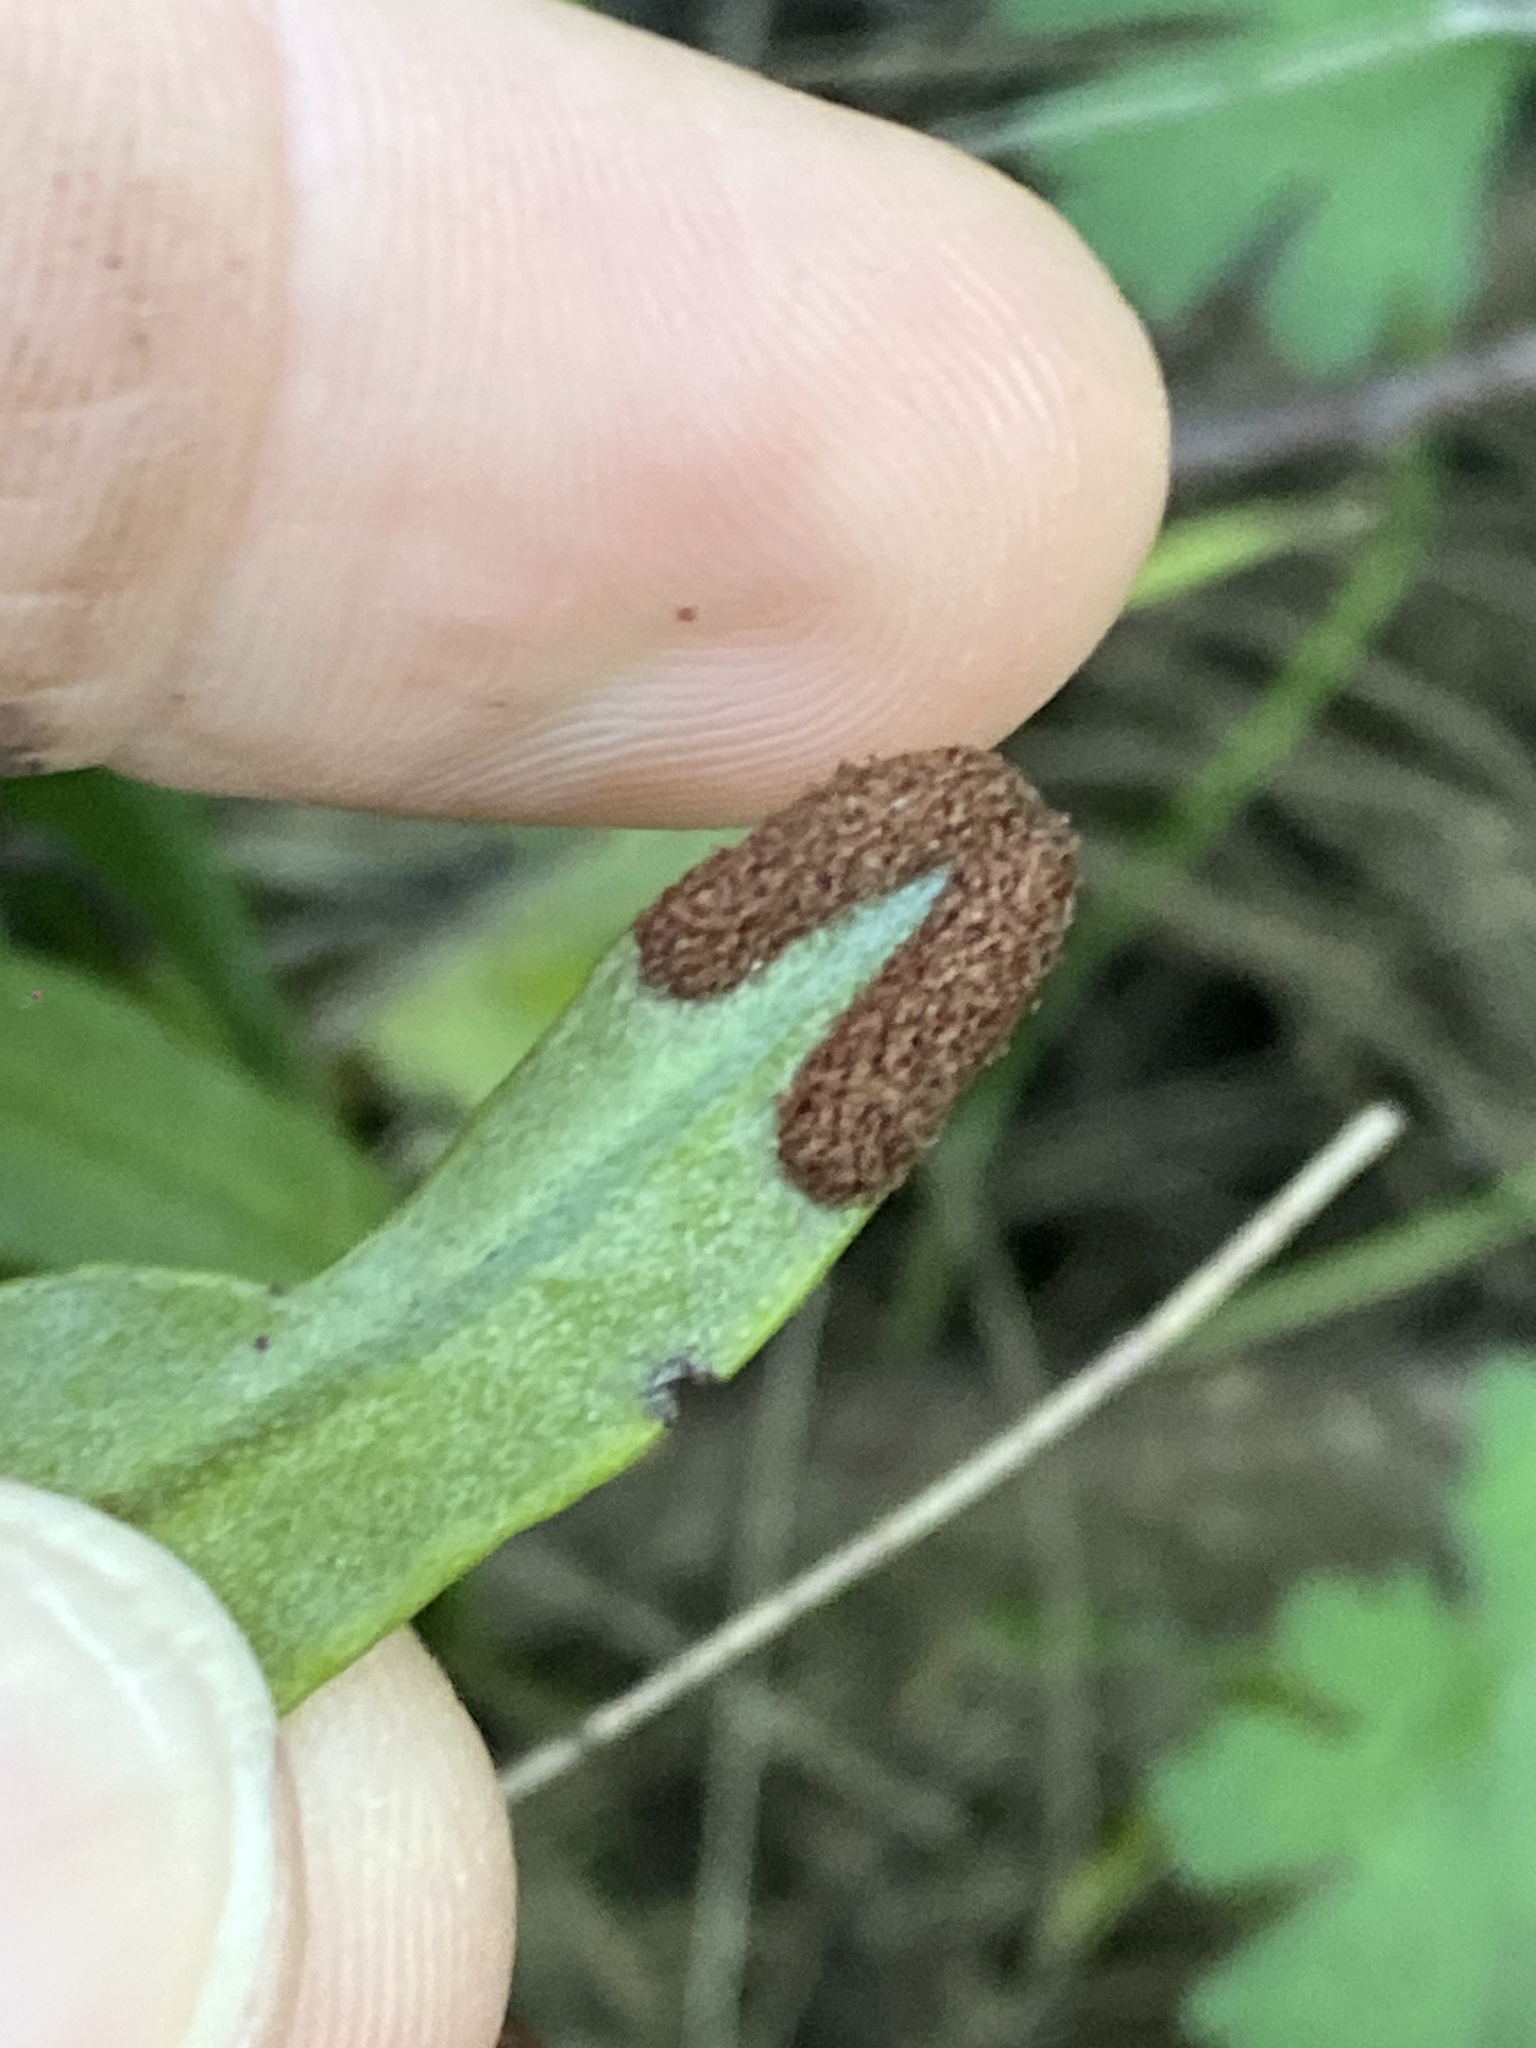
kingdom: Plantae
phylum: Tracheophyta
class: Polypodiopsida
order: Polypodiales
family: Polypodiaceae
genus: Pyrrosia
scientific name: Pyrrosia confluens
